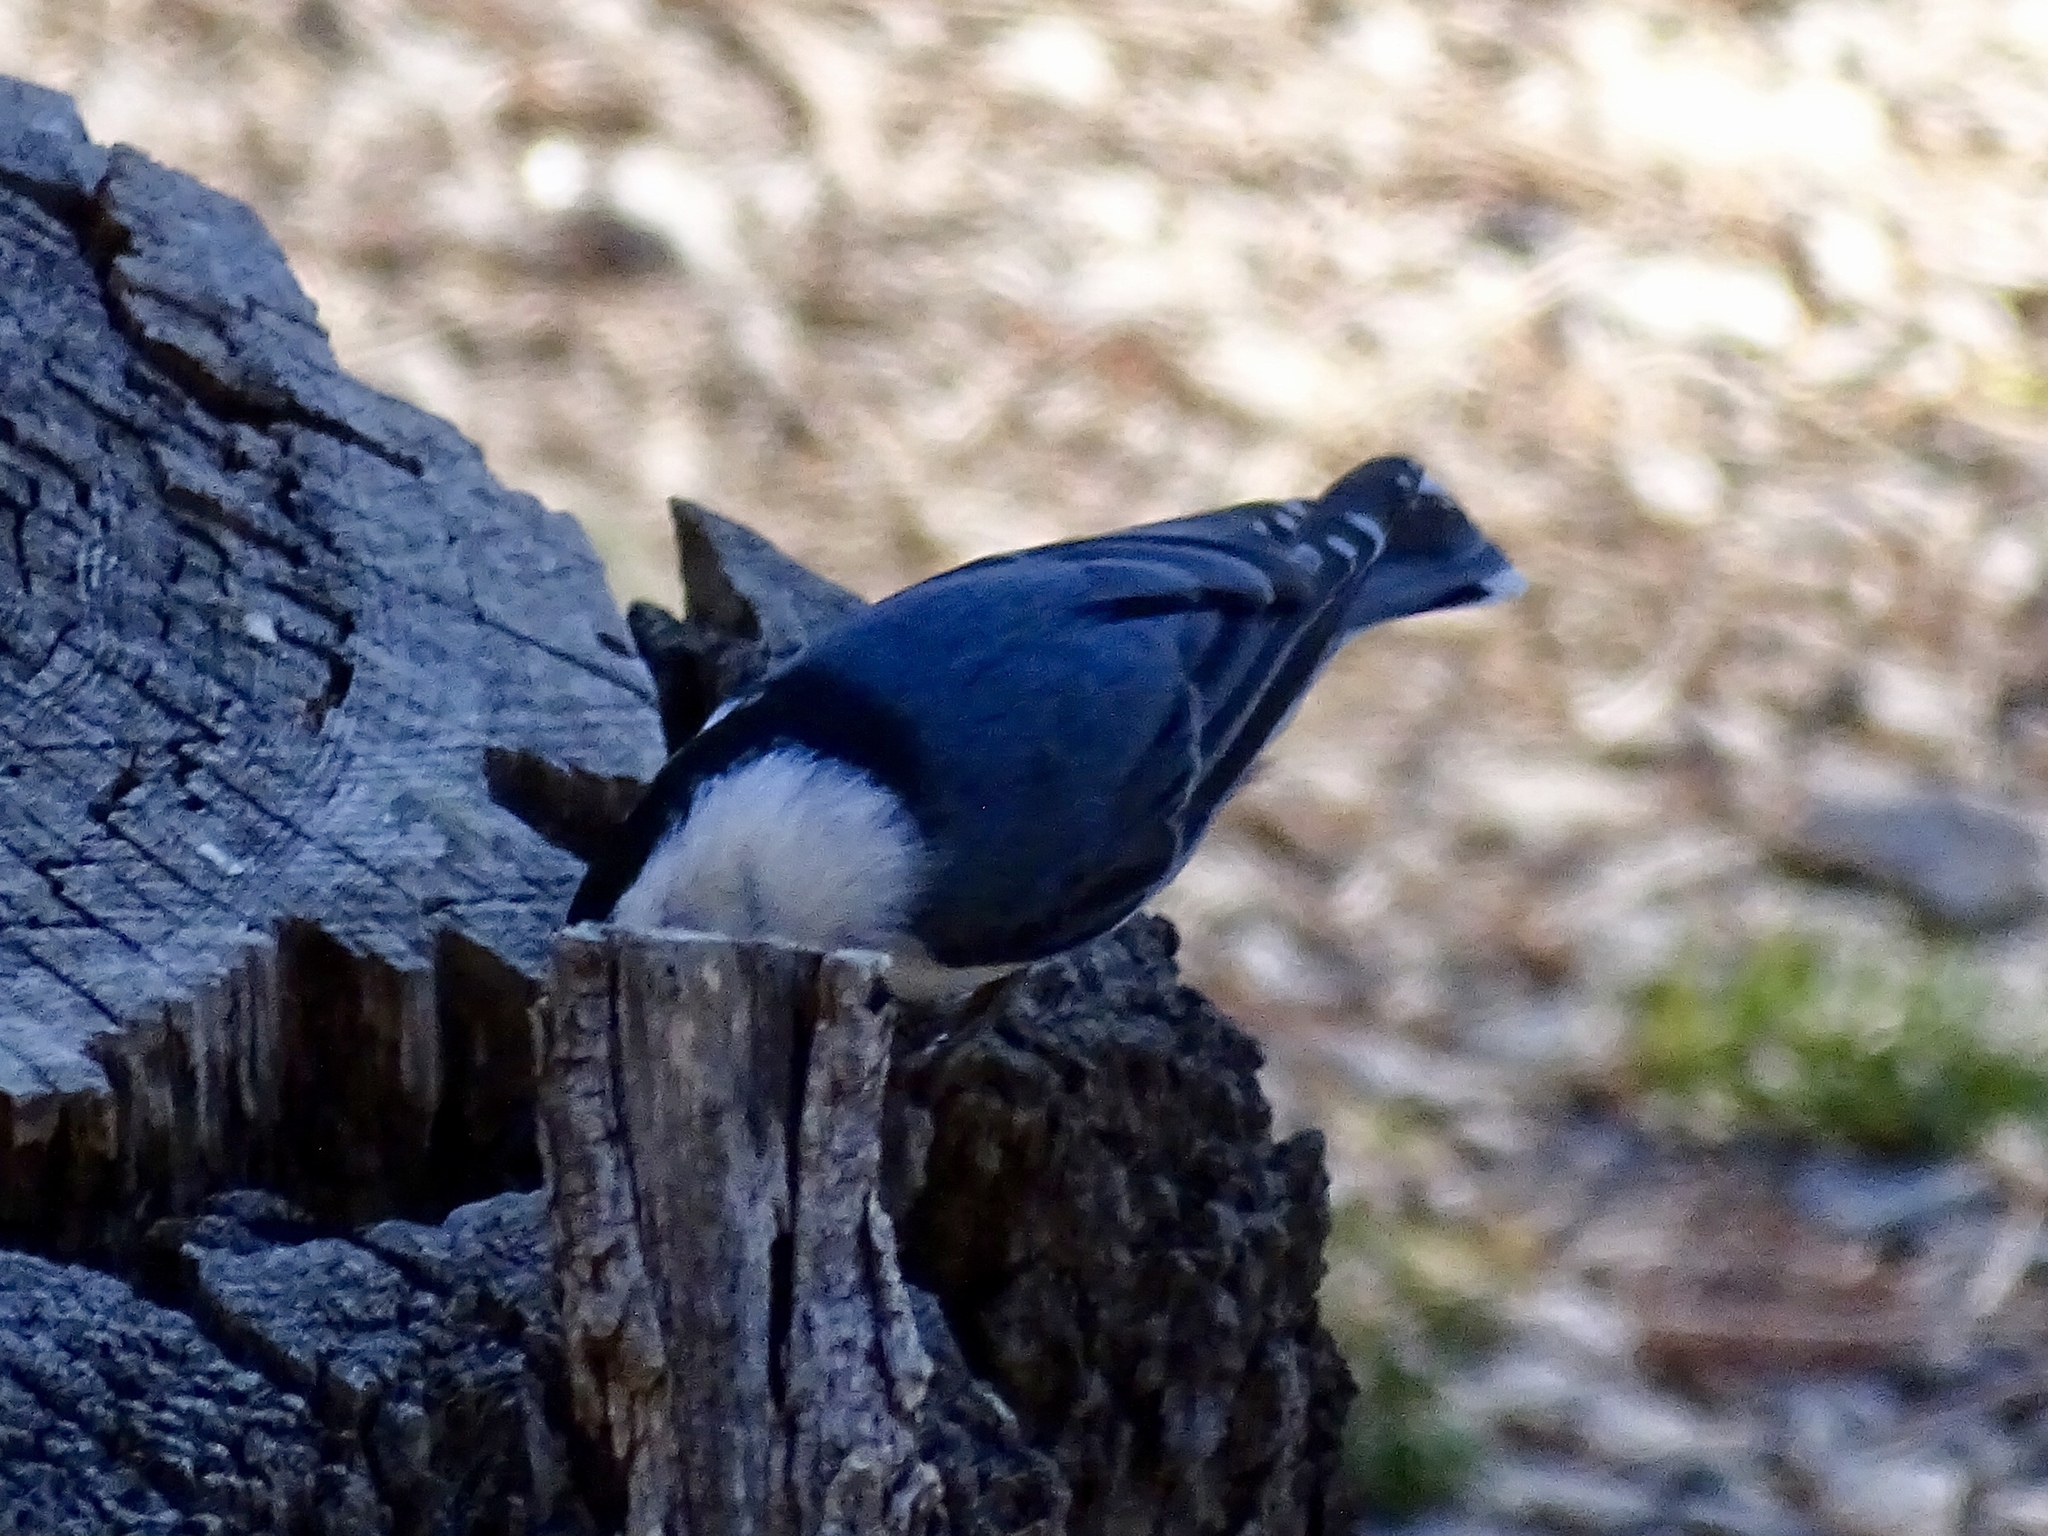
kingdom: Animalia
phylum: Chordata
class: Aves
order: Passeriformes
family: Sittidae
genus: Sitta
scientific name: Sitta carolinensis
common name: White-breasted nuthatch
